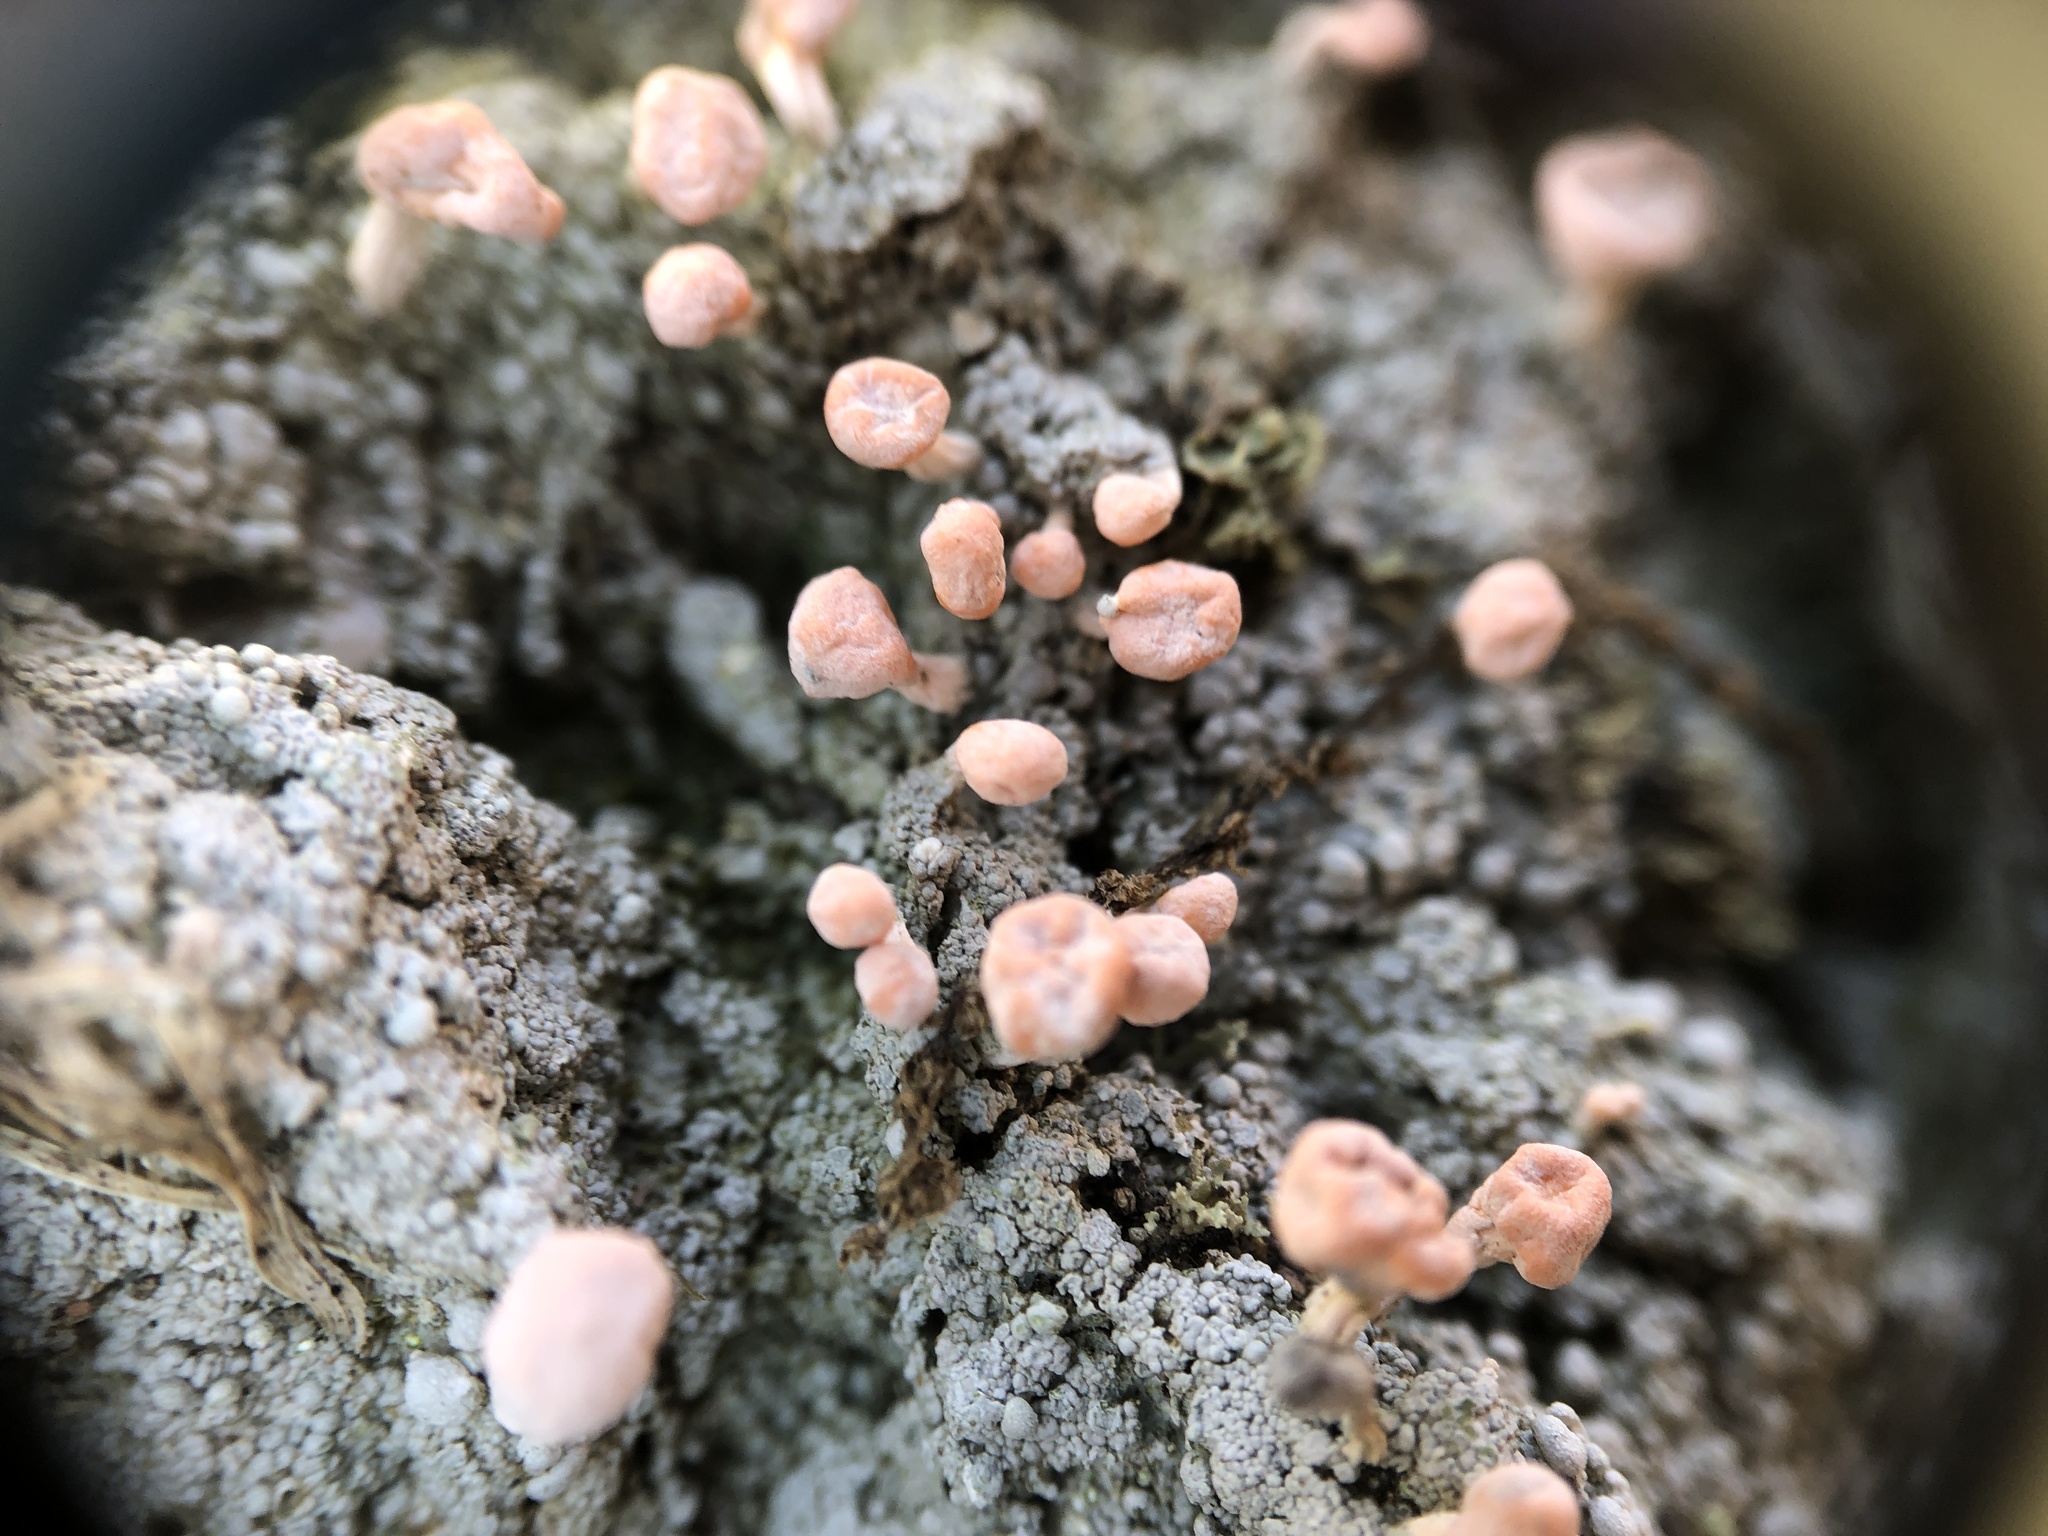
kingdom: Fungi
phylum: Ascomycota
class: Lecanoromycetes
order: Pertusariales
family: Icmadophilaceae
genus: Dibaeis
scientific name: Dibaeis baeomyces
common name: Pink earth lichen
